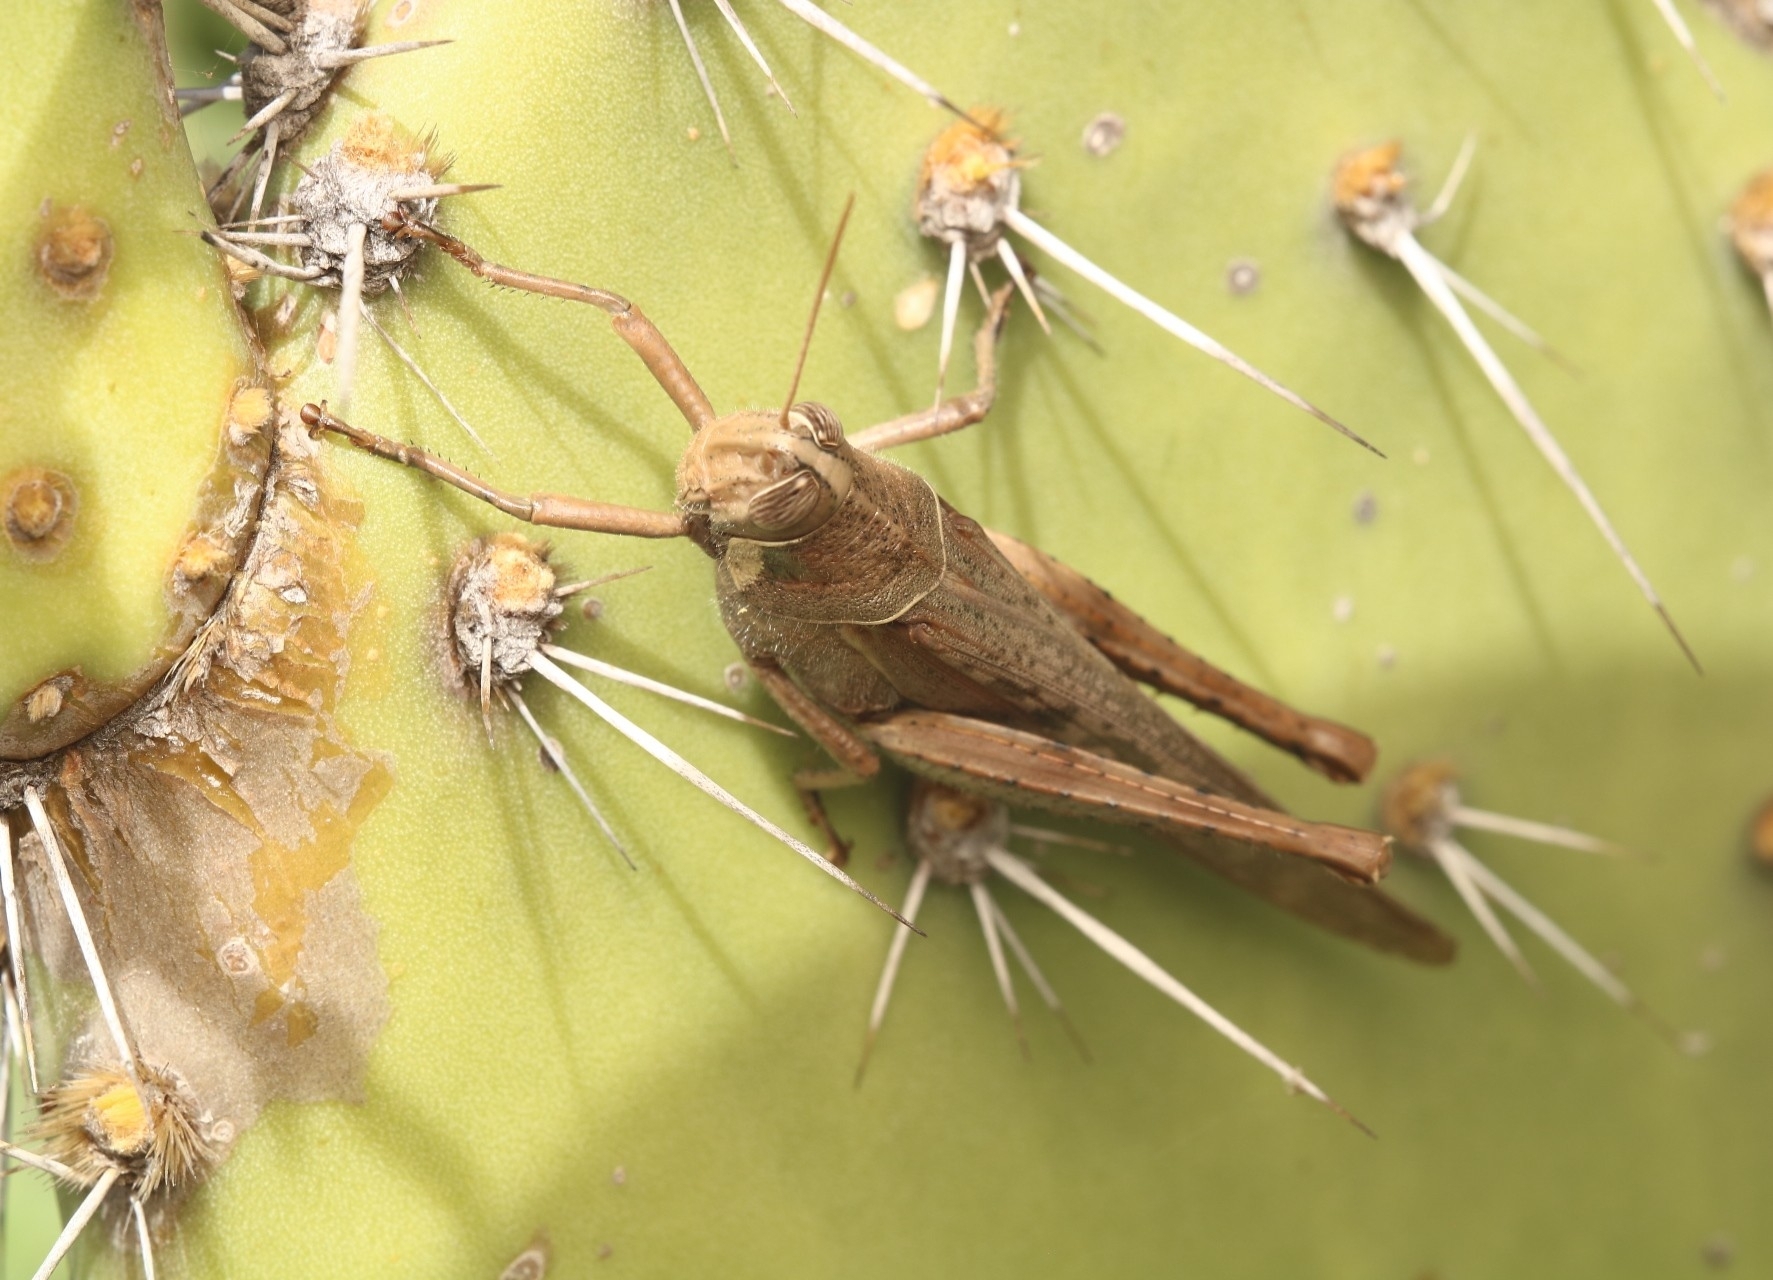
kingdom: Animalia
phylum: Arthropoda
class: Insecta
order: Orthoptera
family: Acrididae
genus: Schistocerca
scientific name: Schistocerca nitens
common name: Vagrant grasshopper
